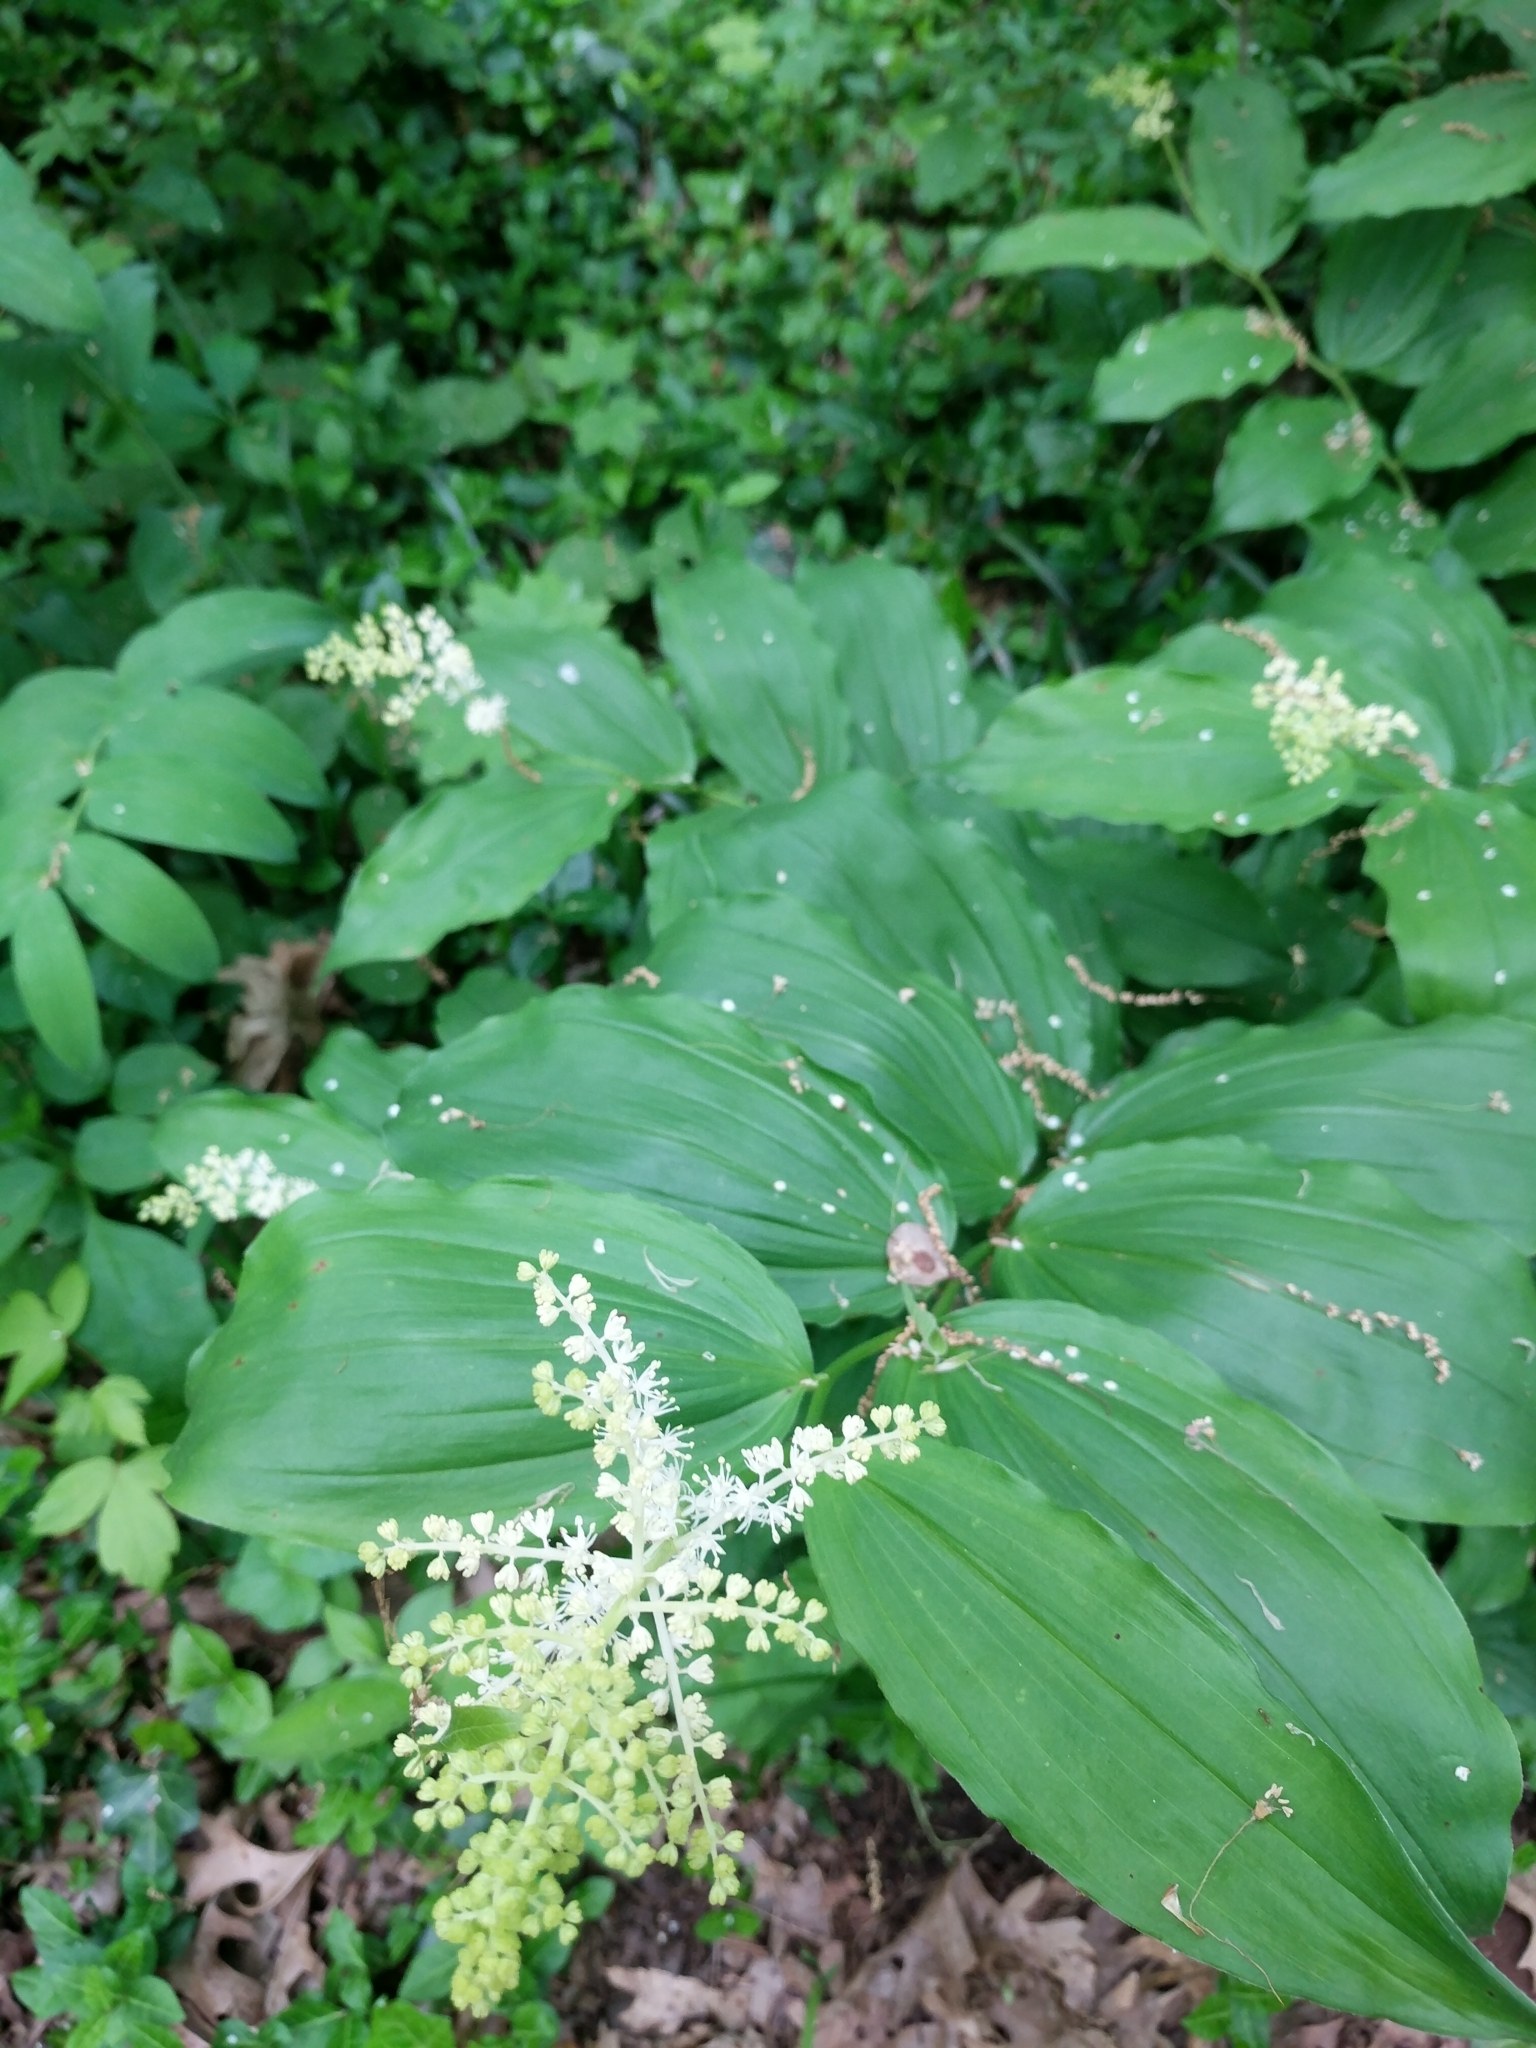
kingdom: Plantae
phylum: Tracheophyta
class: Liliopsida
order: Asparagales
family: Asparagaceae
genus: Maianthemum
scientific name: Maianthemum racemosum
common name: False spikenard
